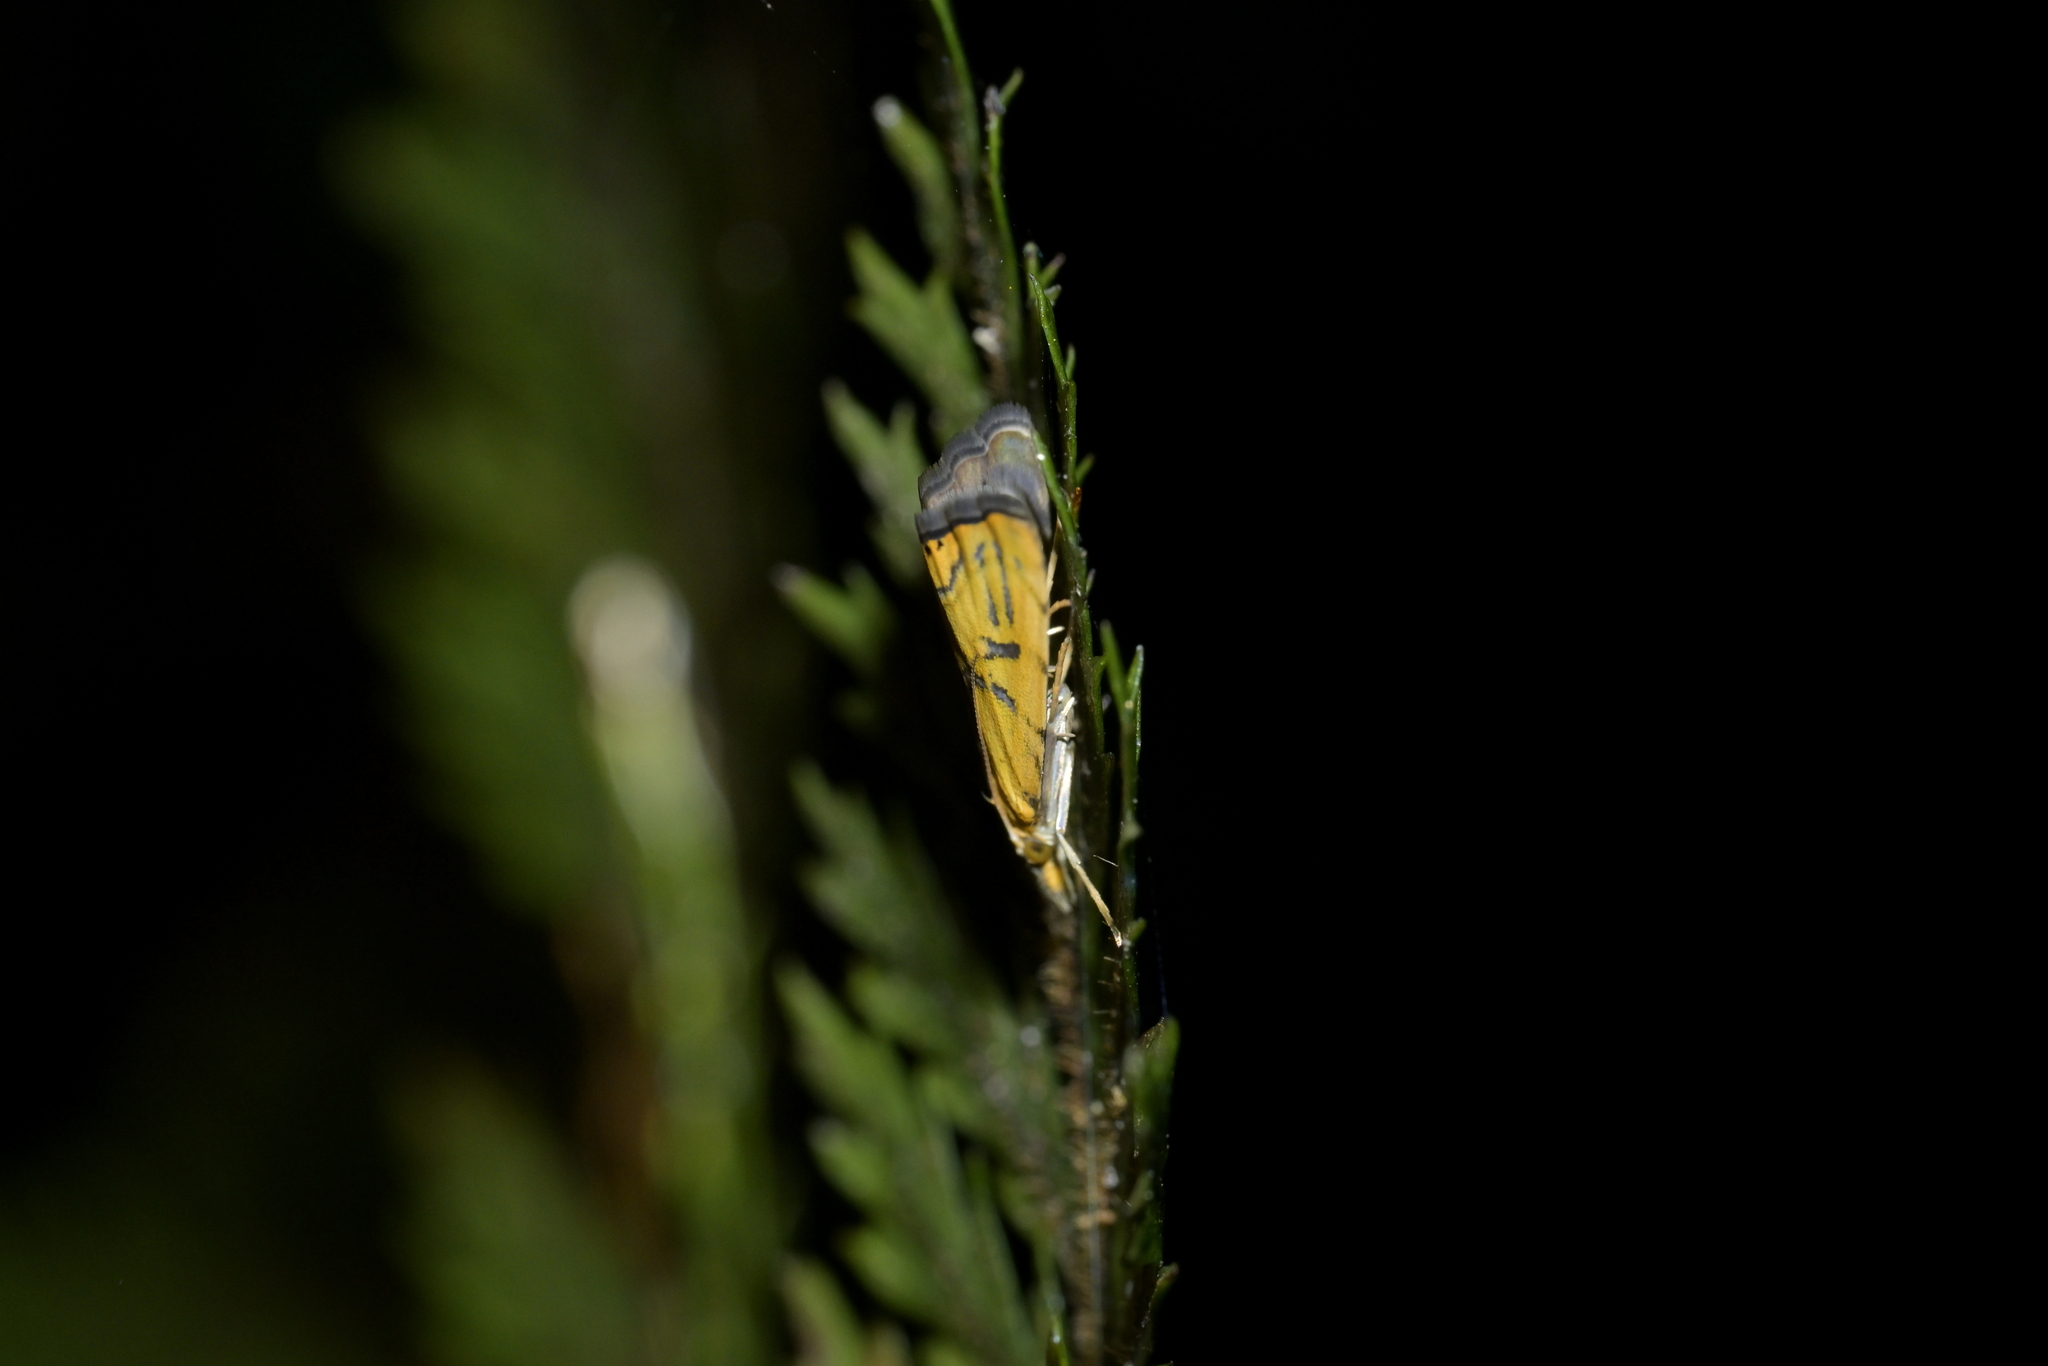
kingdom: Animalia
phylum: Arthropoda
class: Insecta
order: Lepidoptera
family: Crambidae
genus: Glaucocharis
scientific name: Glaucocharis auriscriptella
